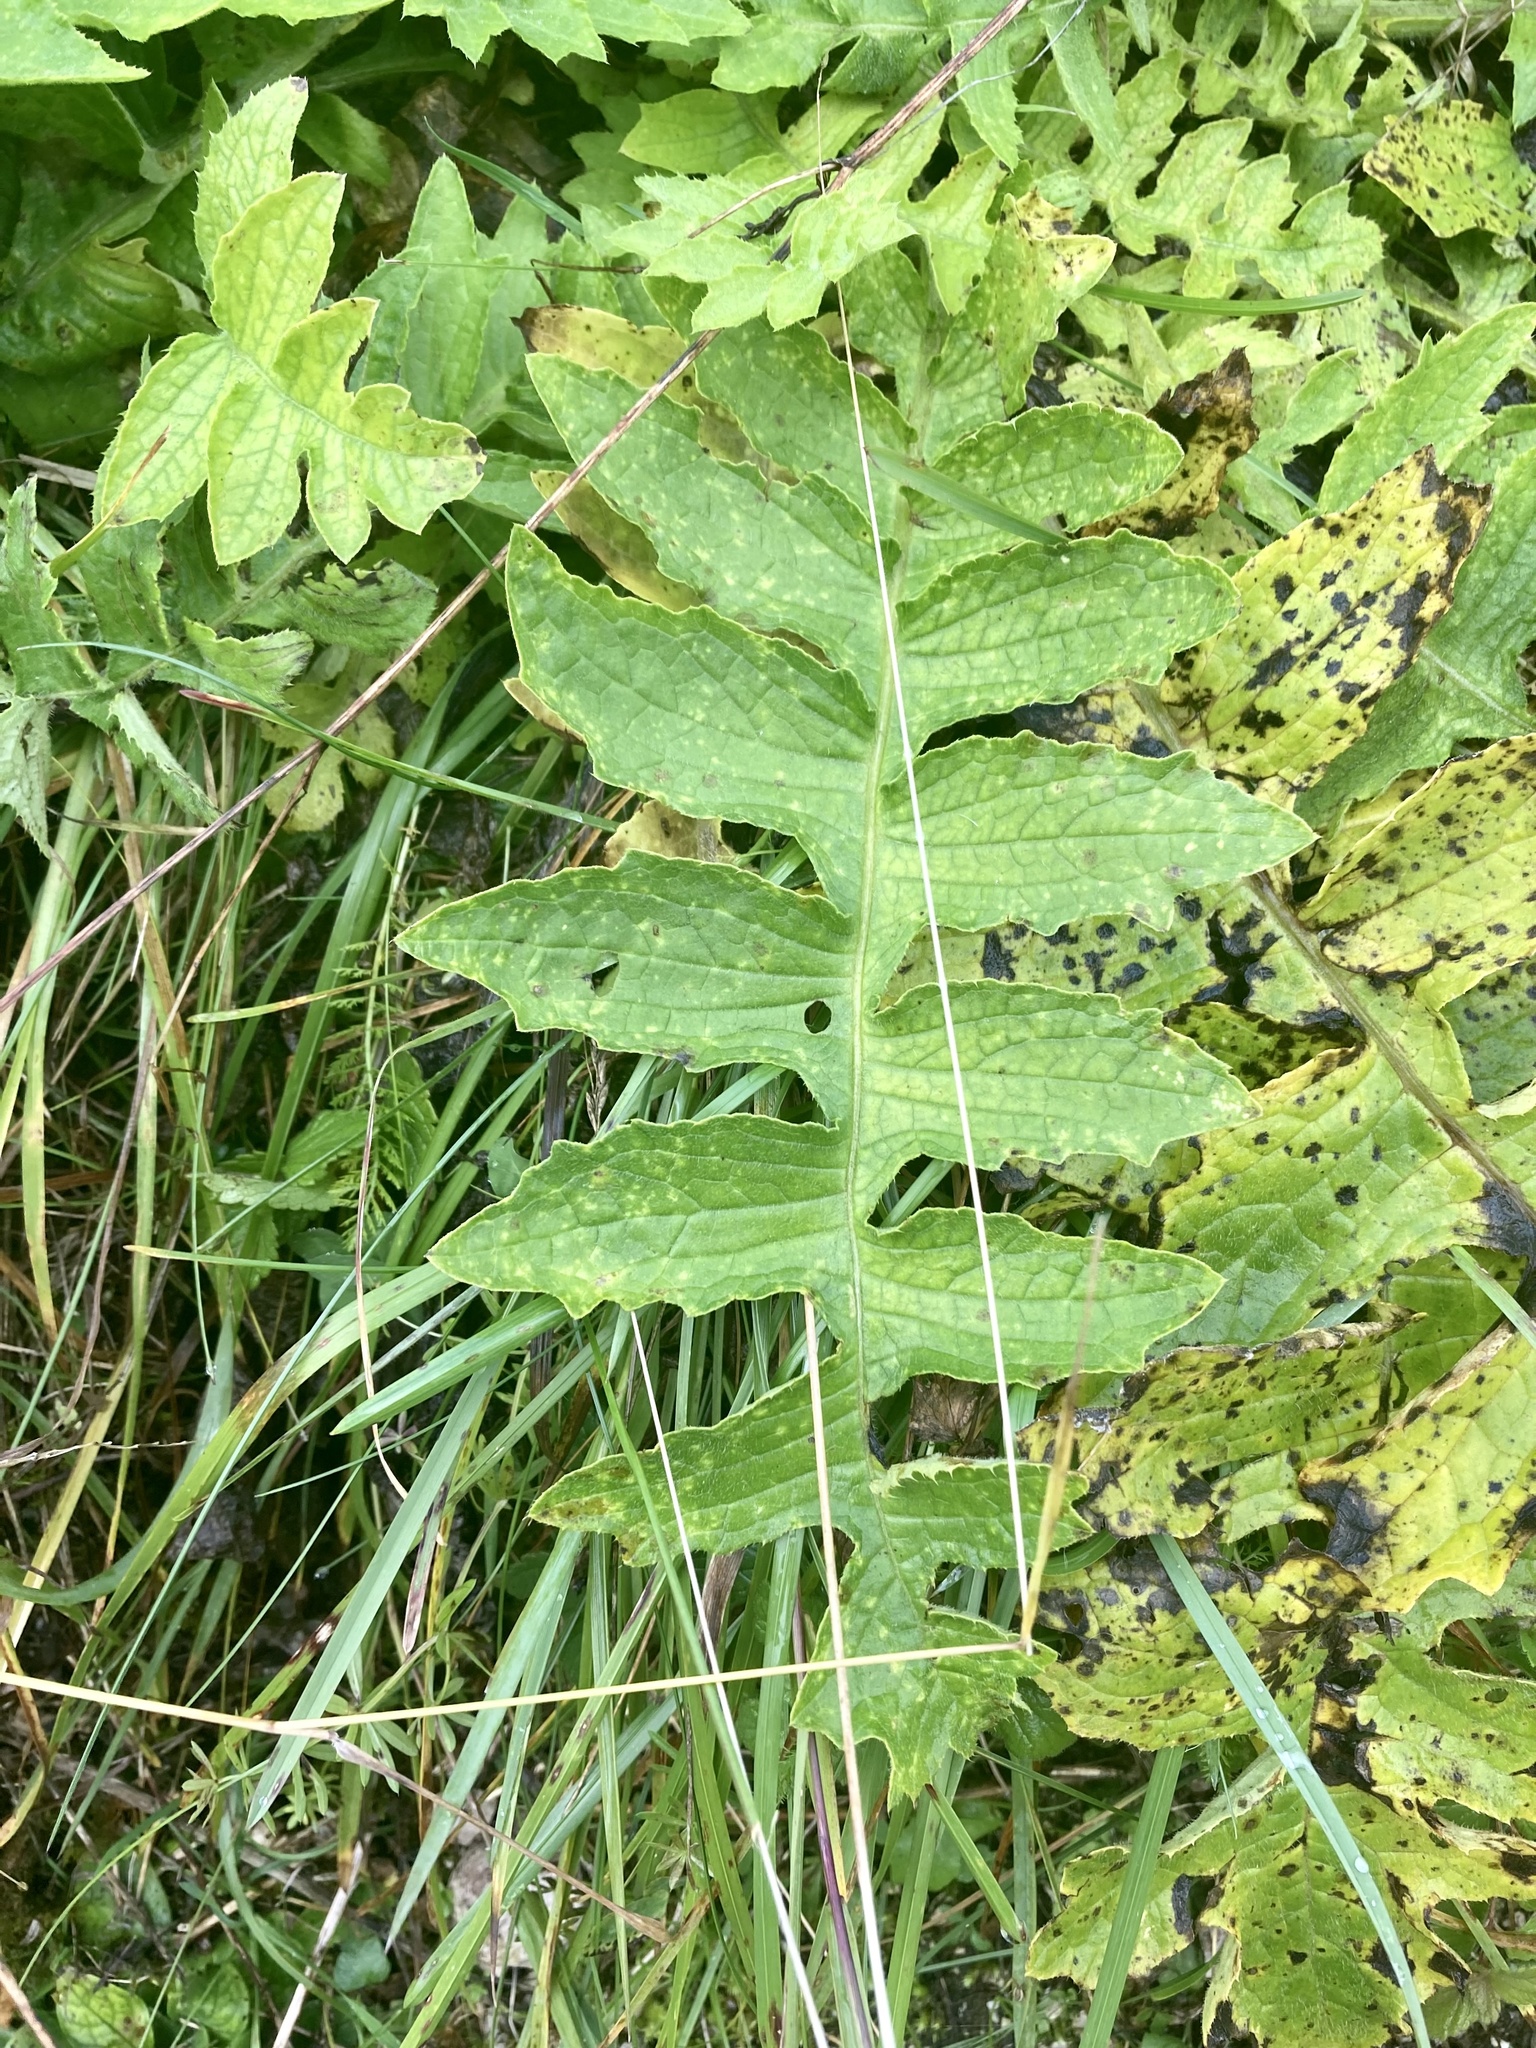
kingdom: Plantae
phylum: Tracheophyta
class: Magnoliopsida
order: Asterales
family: Asteraceae
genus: Cirsium
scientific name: Cirsium erisithales
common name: Yellow thistle
